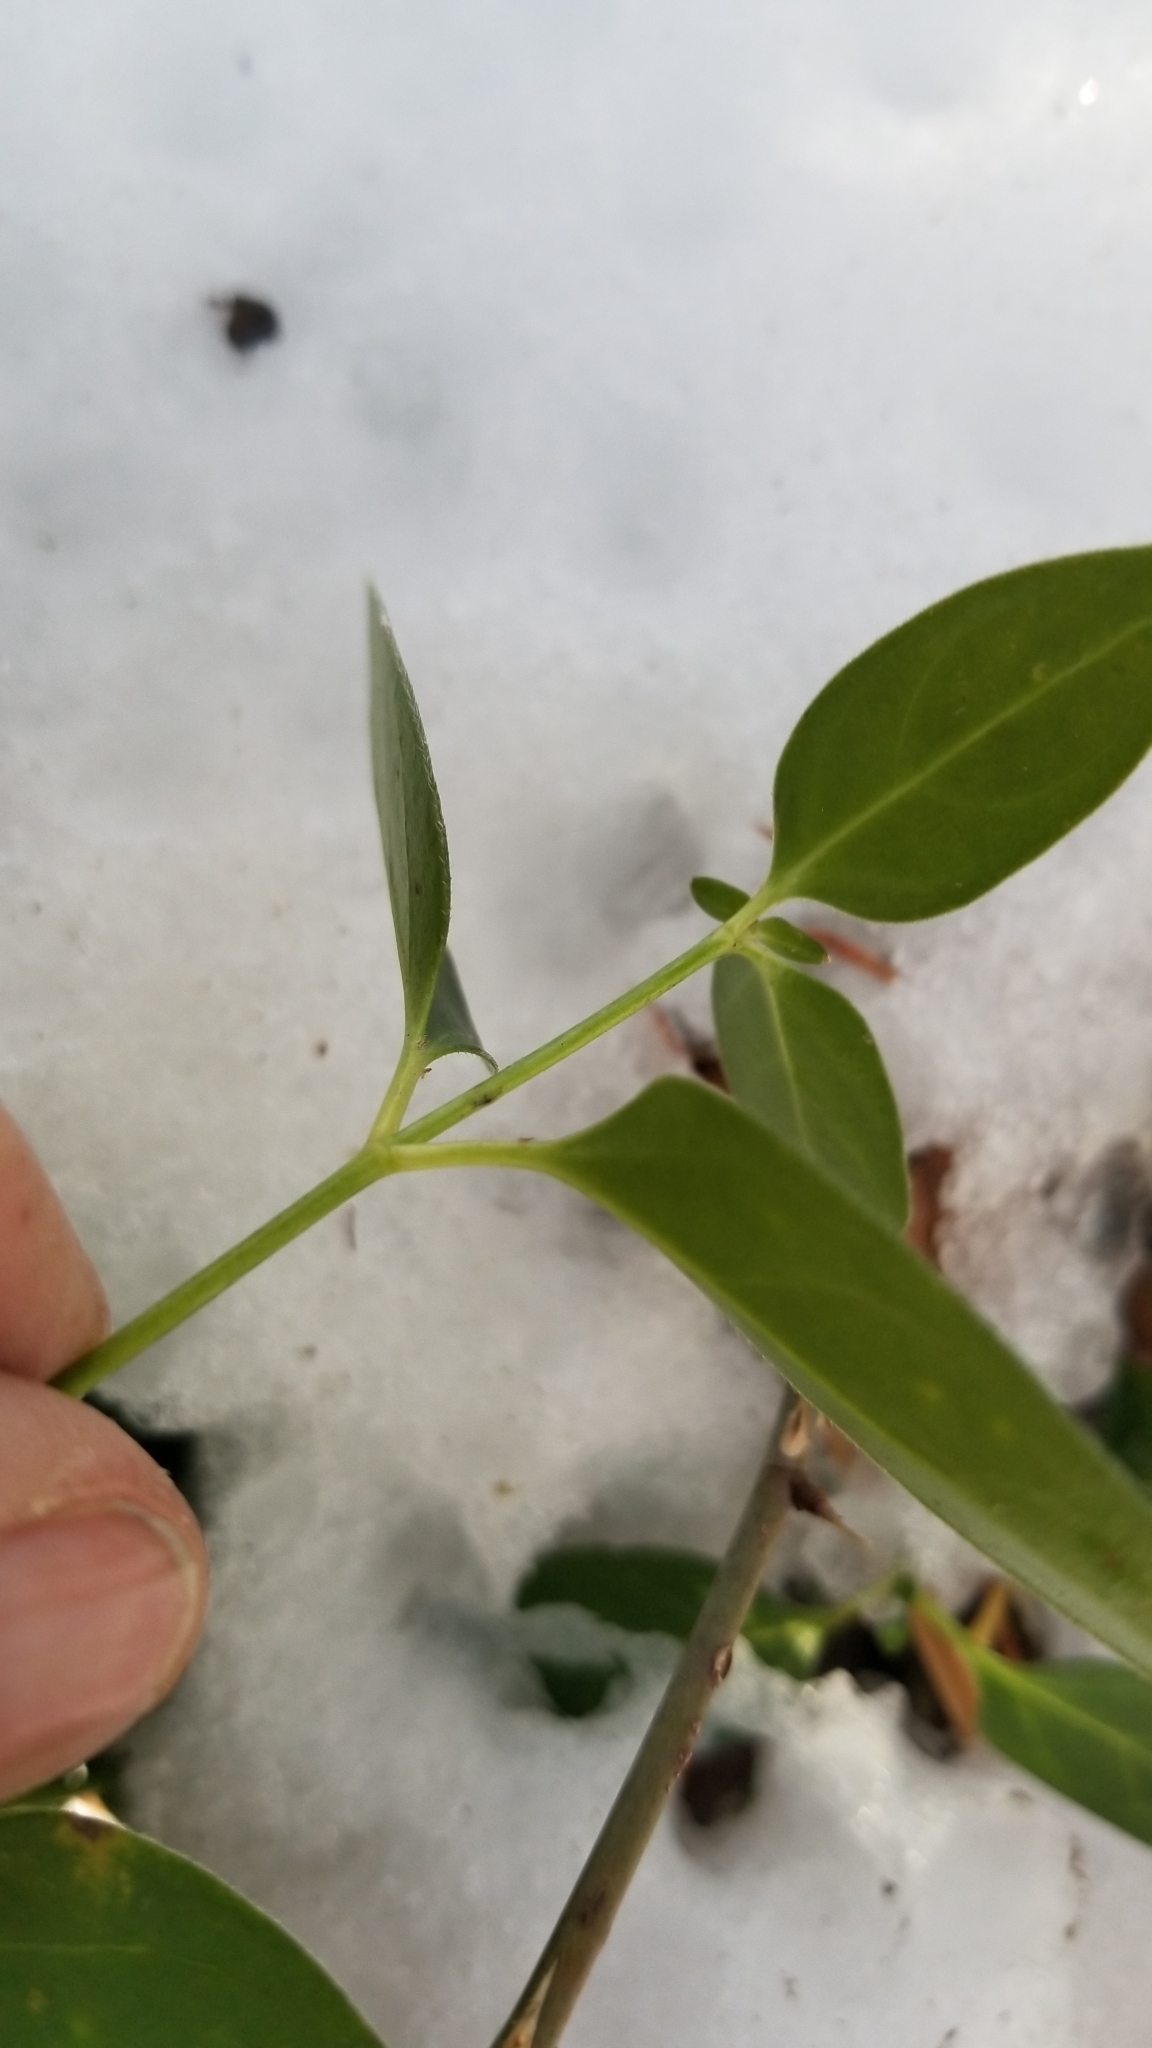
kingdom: Plantae
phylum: Tracheophyta
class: Magnoliopsida
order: Gentianales
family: Apocynaceae
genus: Vinca
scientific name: Vinca major
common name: Greater periwinkle
